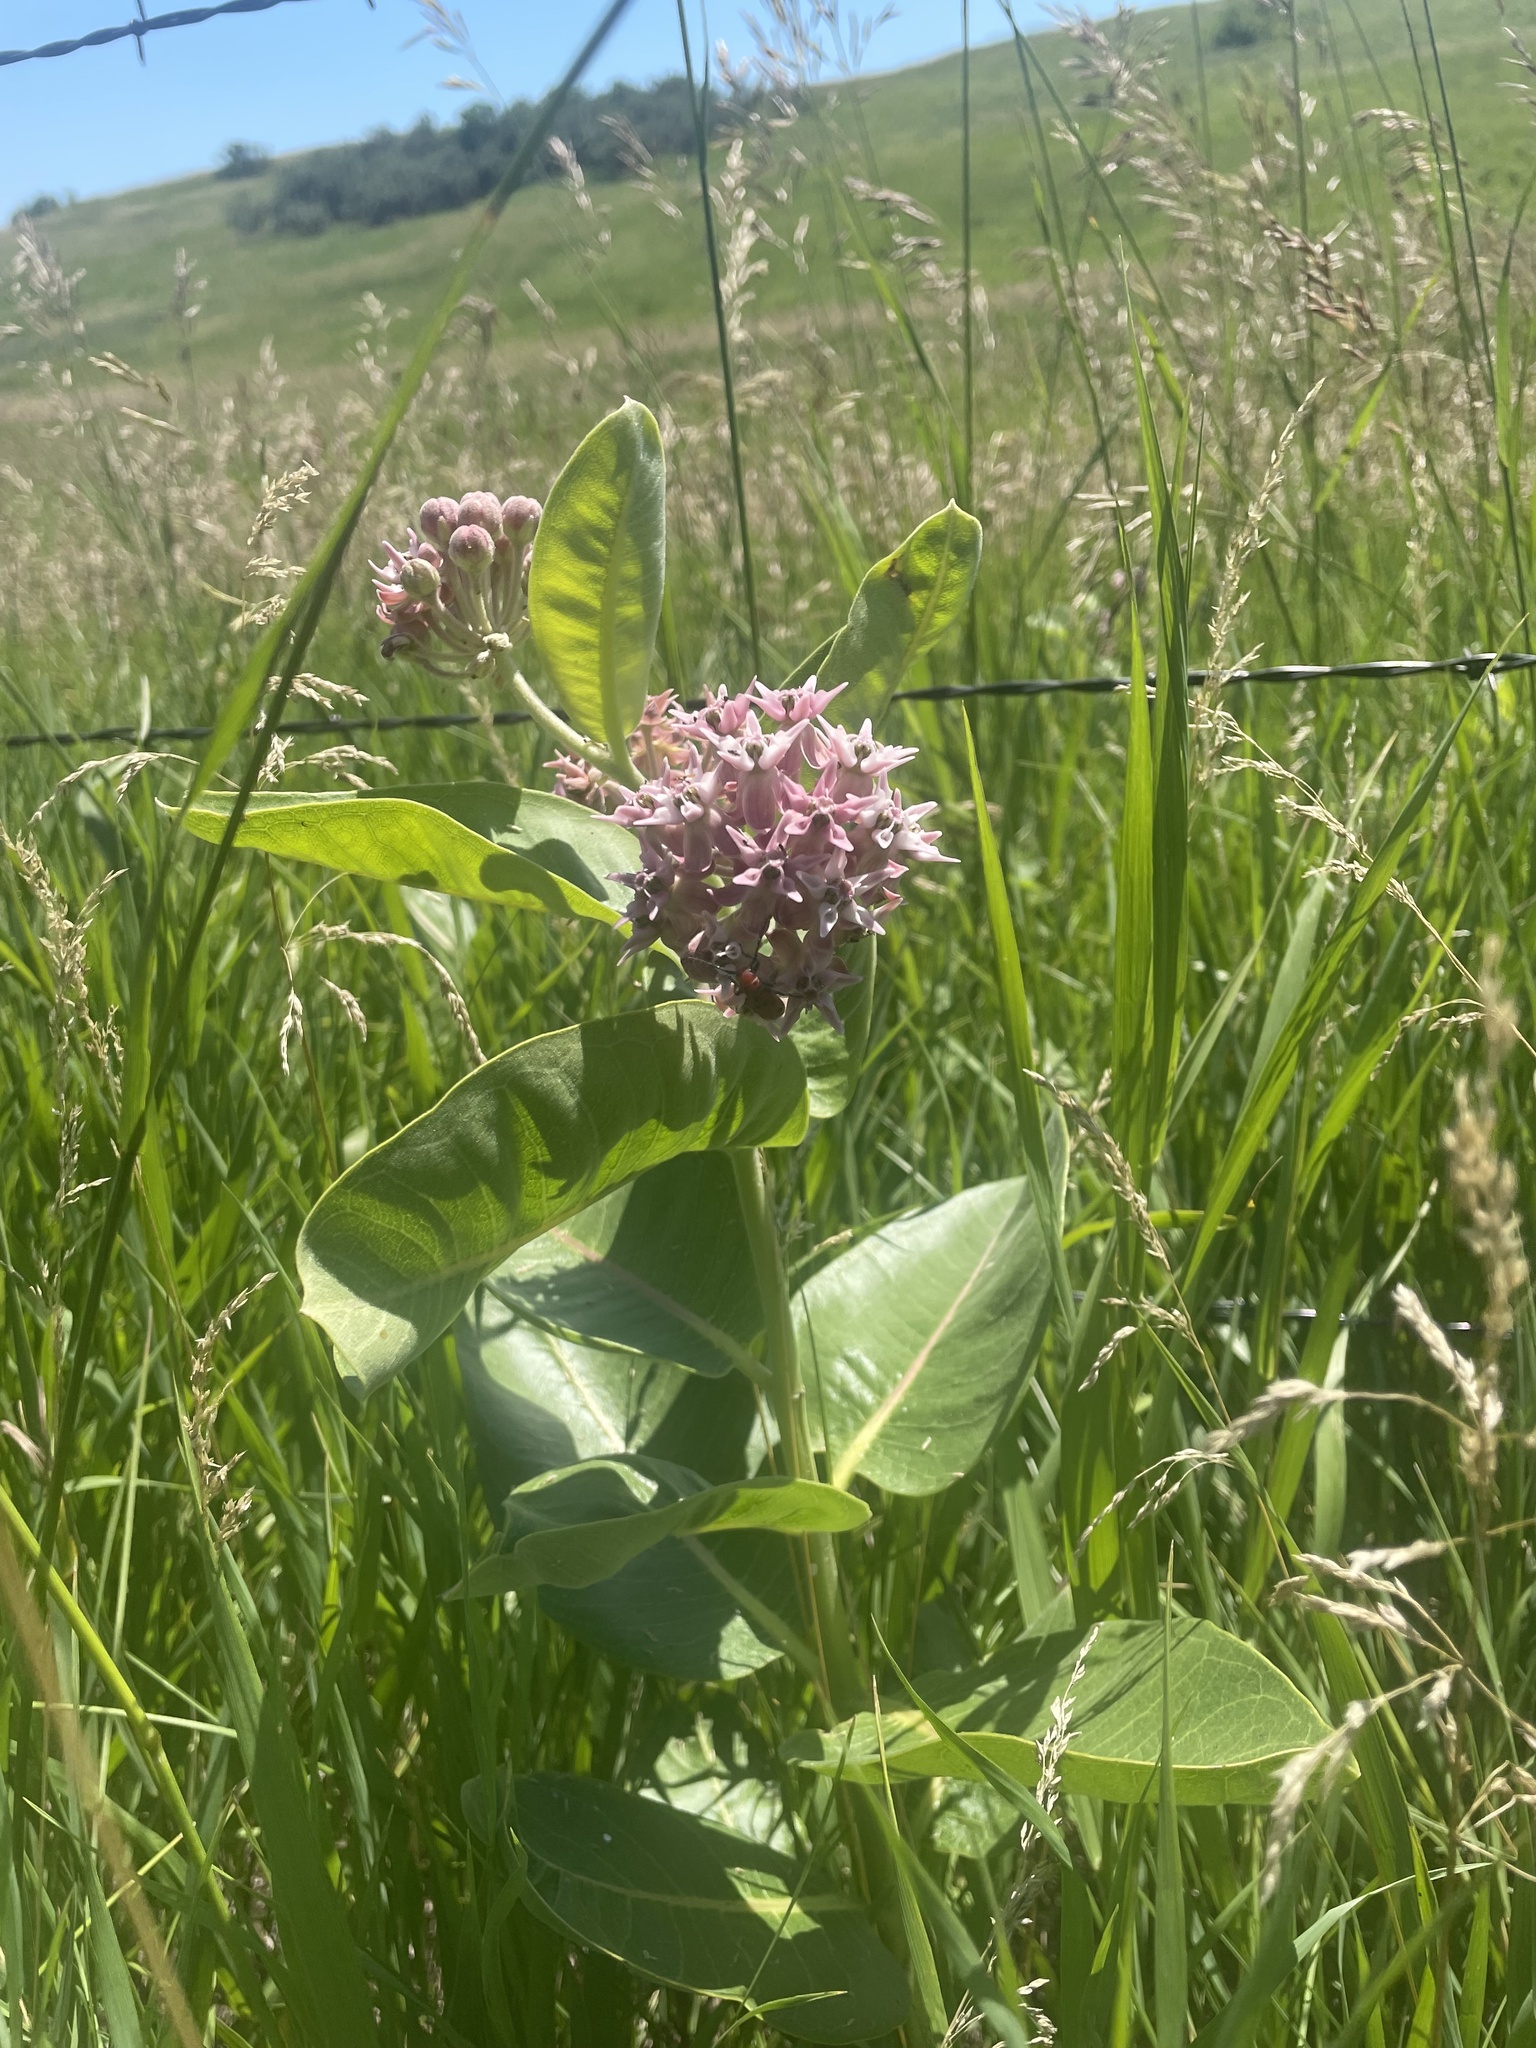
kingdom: Plantae
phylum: Tracheophyta
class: Magnoliopsida
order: Gentianales
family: Apocynaceae
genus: Asclepias
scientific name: Asclepias speciosa
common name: Showy milkweed
